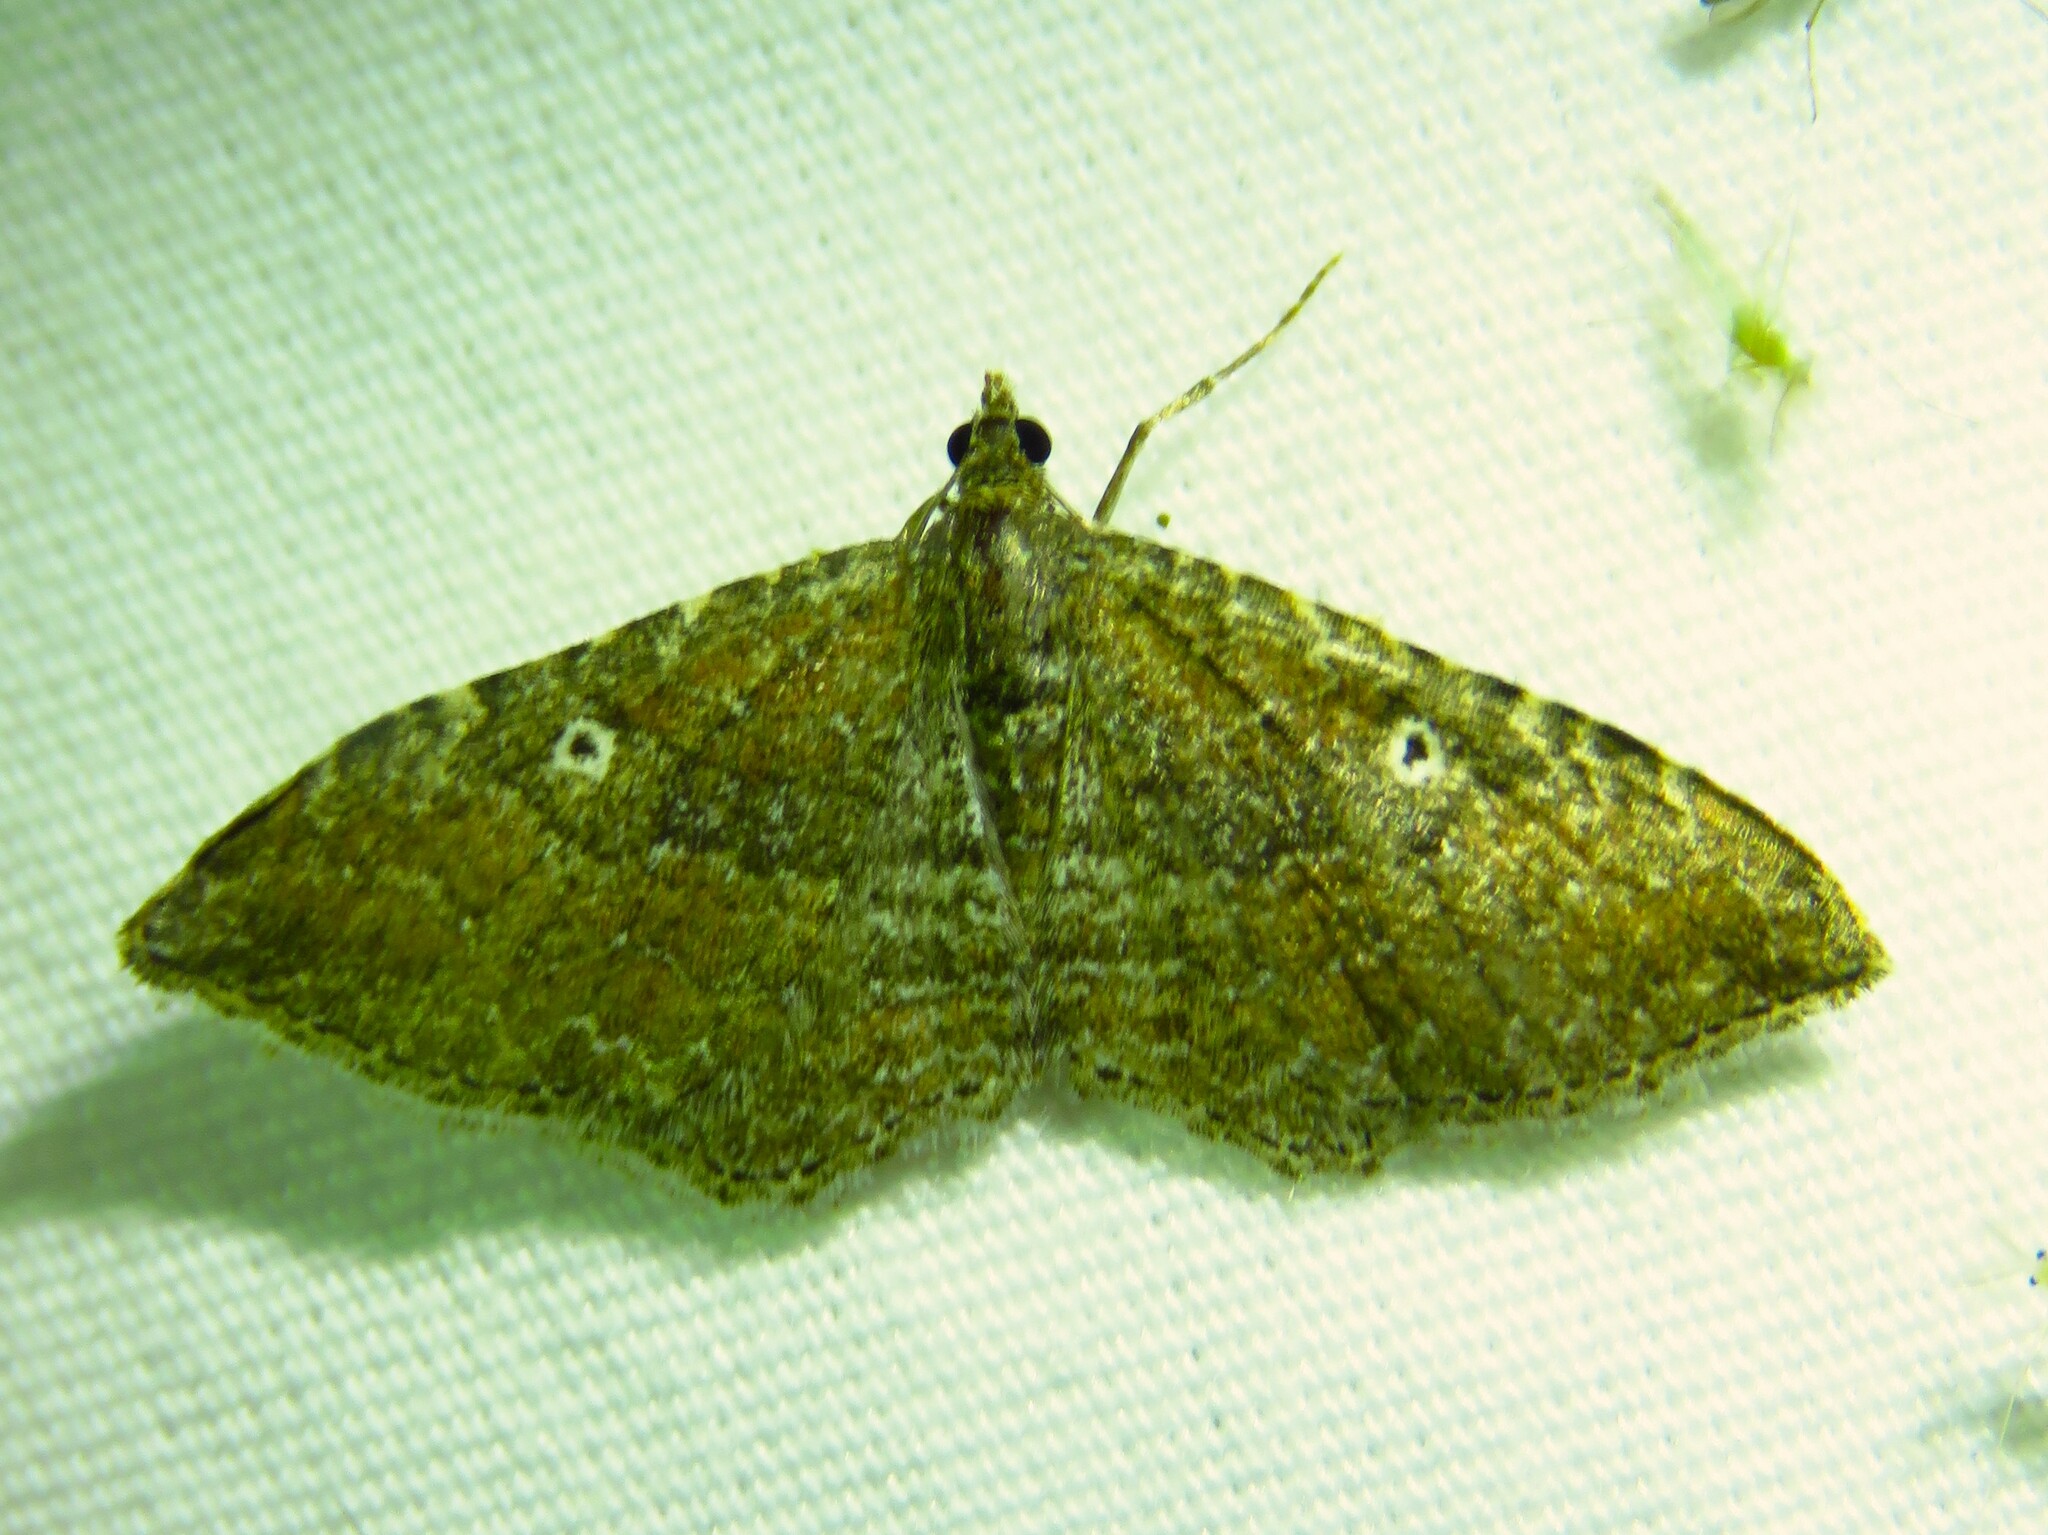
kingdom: Animalia
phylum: Arthropoda
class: Insecta
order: Lepidoptera
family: Geometridae
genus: Orthonama
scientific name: Orthonama obstipata
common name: The gem
